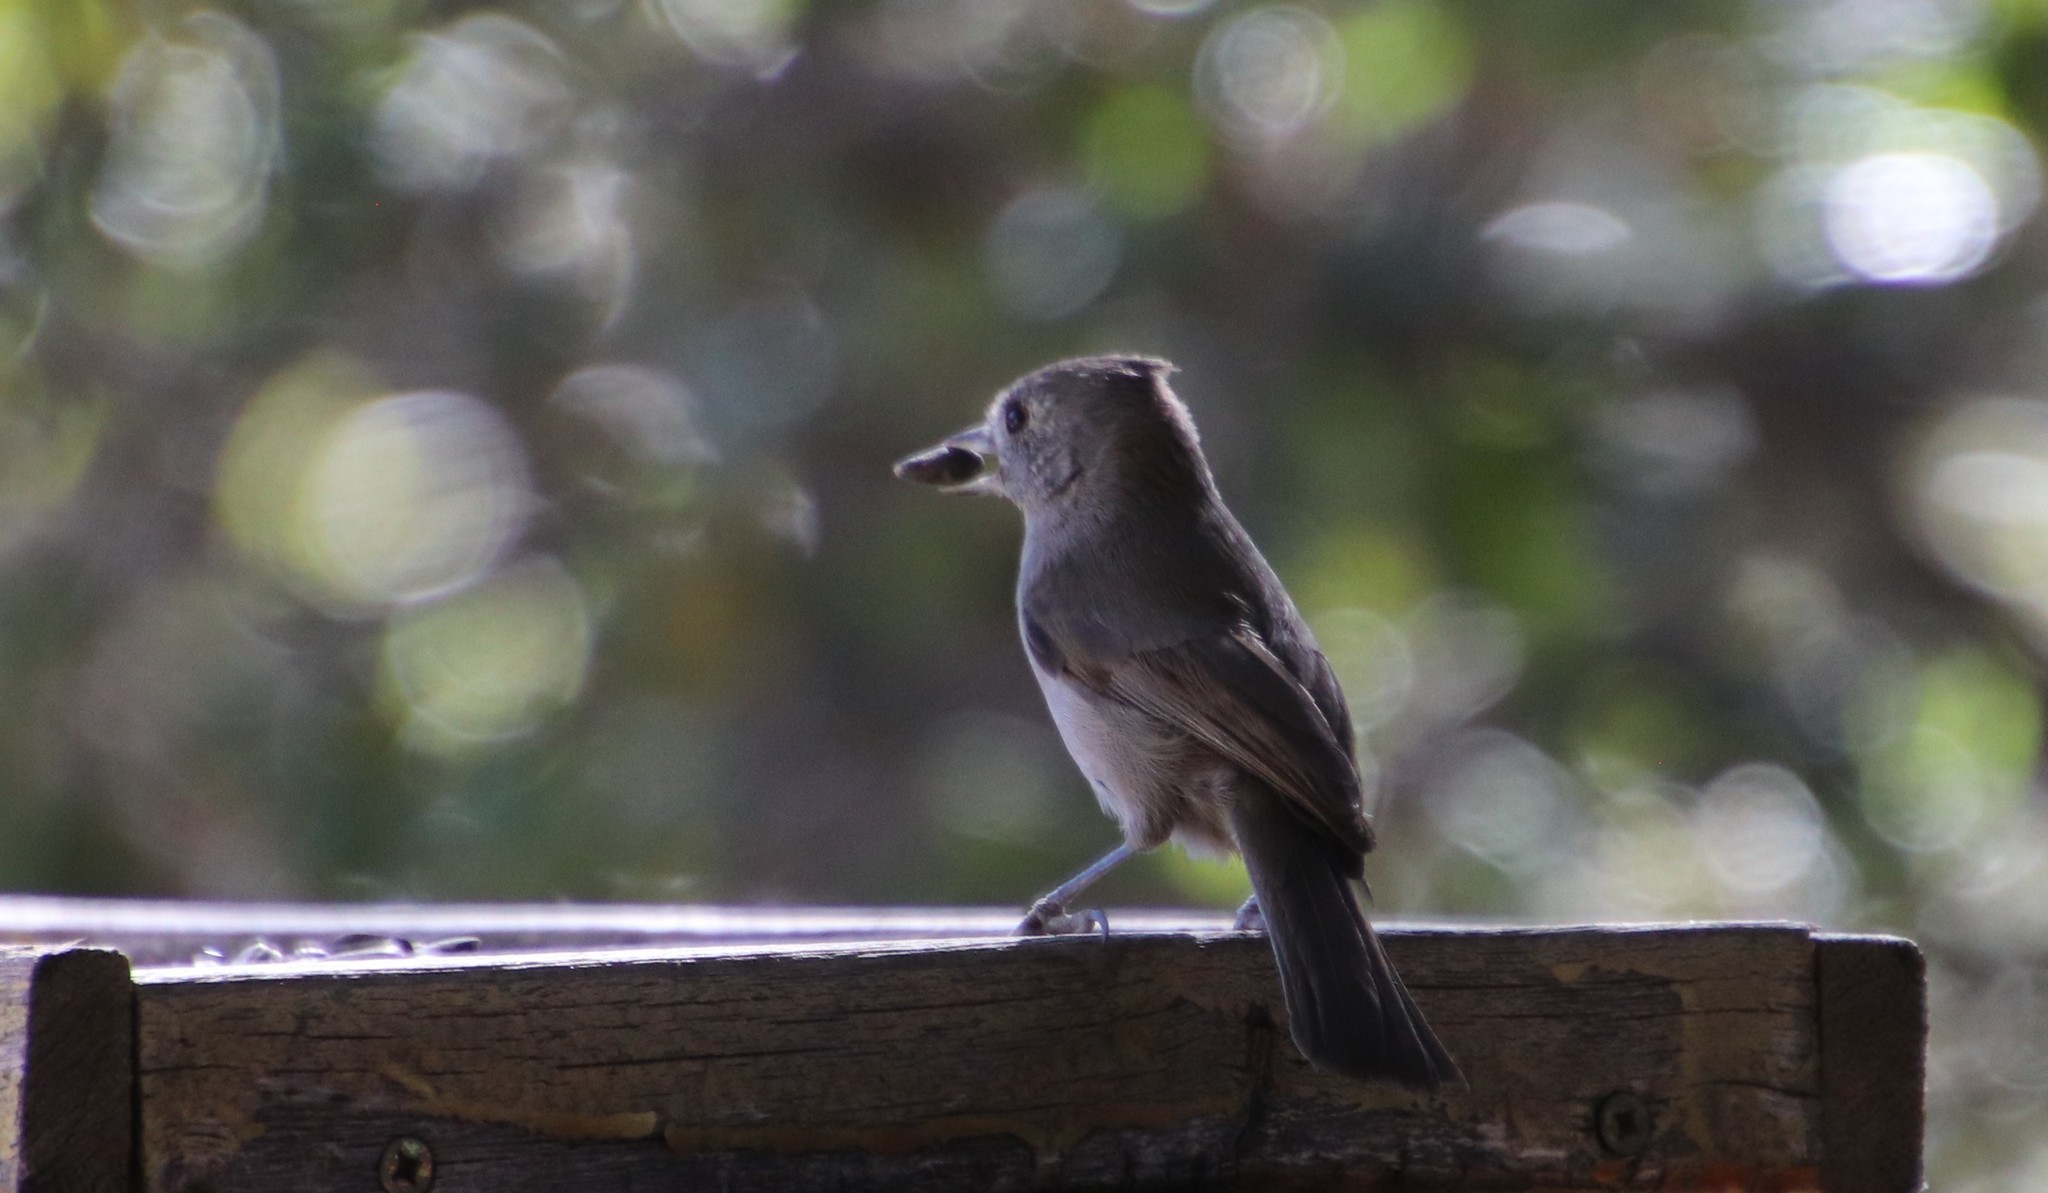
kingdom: Animalia
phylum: Chordata
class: Aves
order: Passeriformes
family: Paridae
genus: Baeolophus
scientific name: Baeolophus inornatus
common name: Oak titmouse
